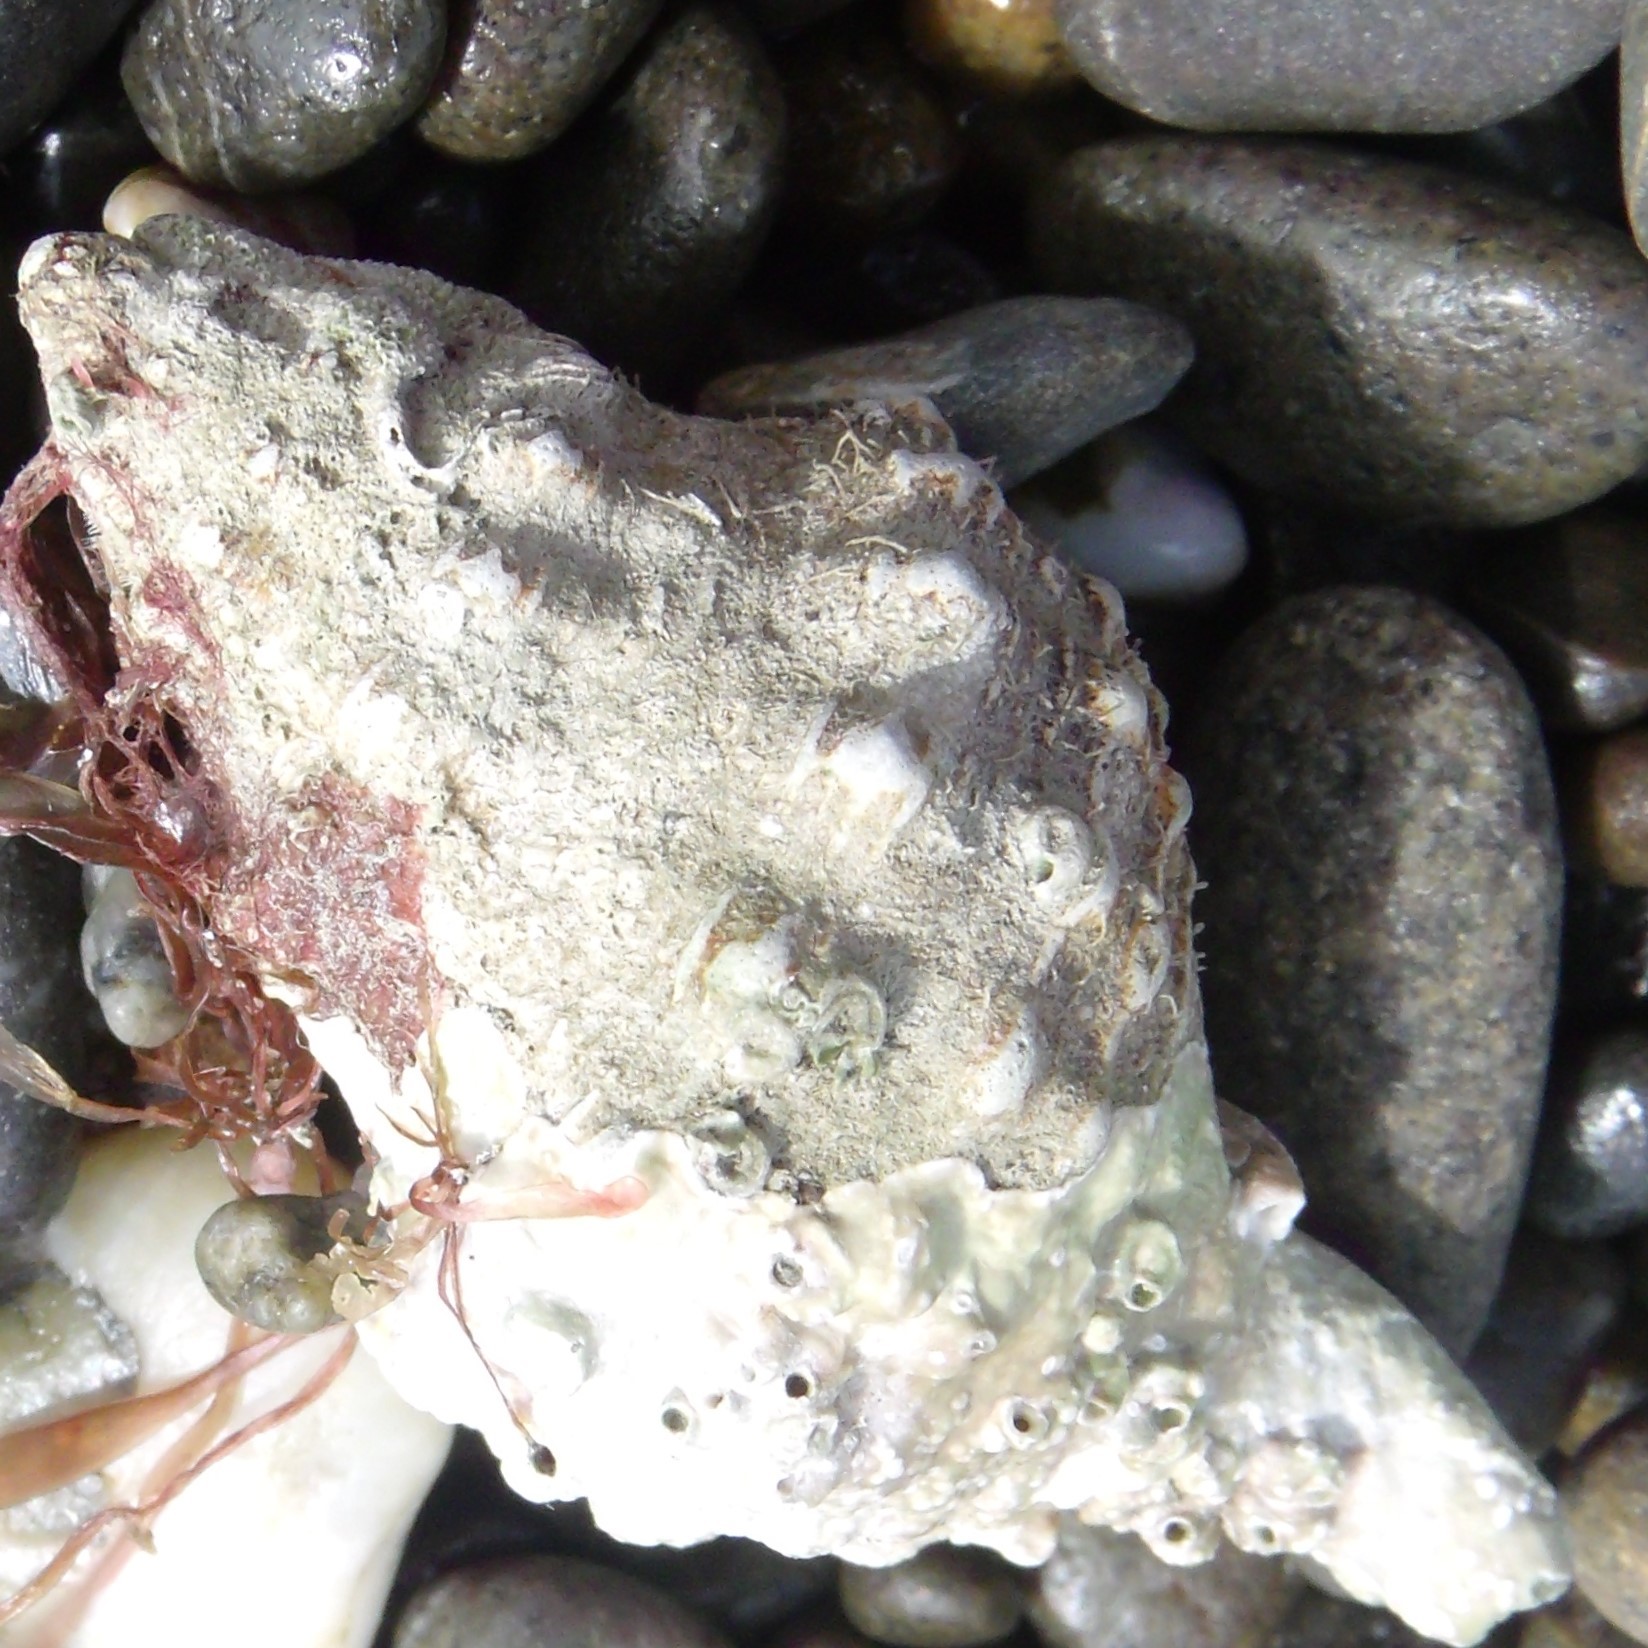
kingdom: Animalia
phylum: Mollusca
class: Gastropoda
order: Neogastropoda
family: Prosiphonidae
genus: Austrofusus
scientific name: Austrofusus glans
